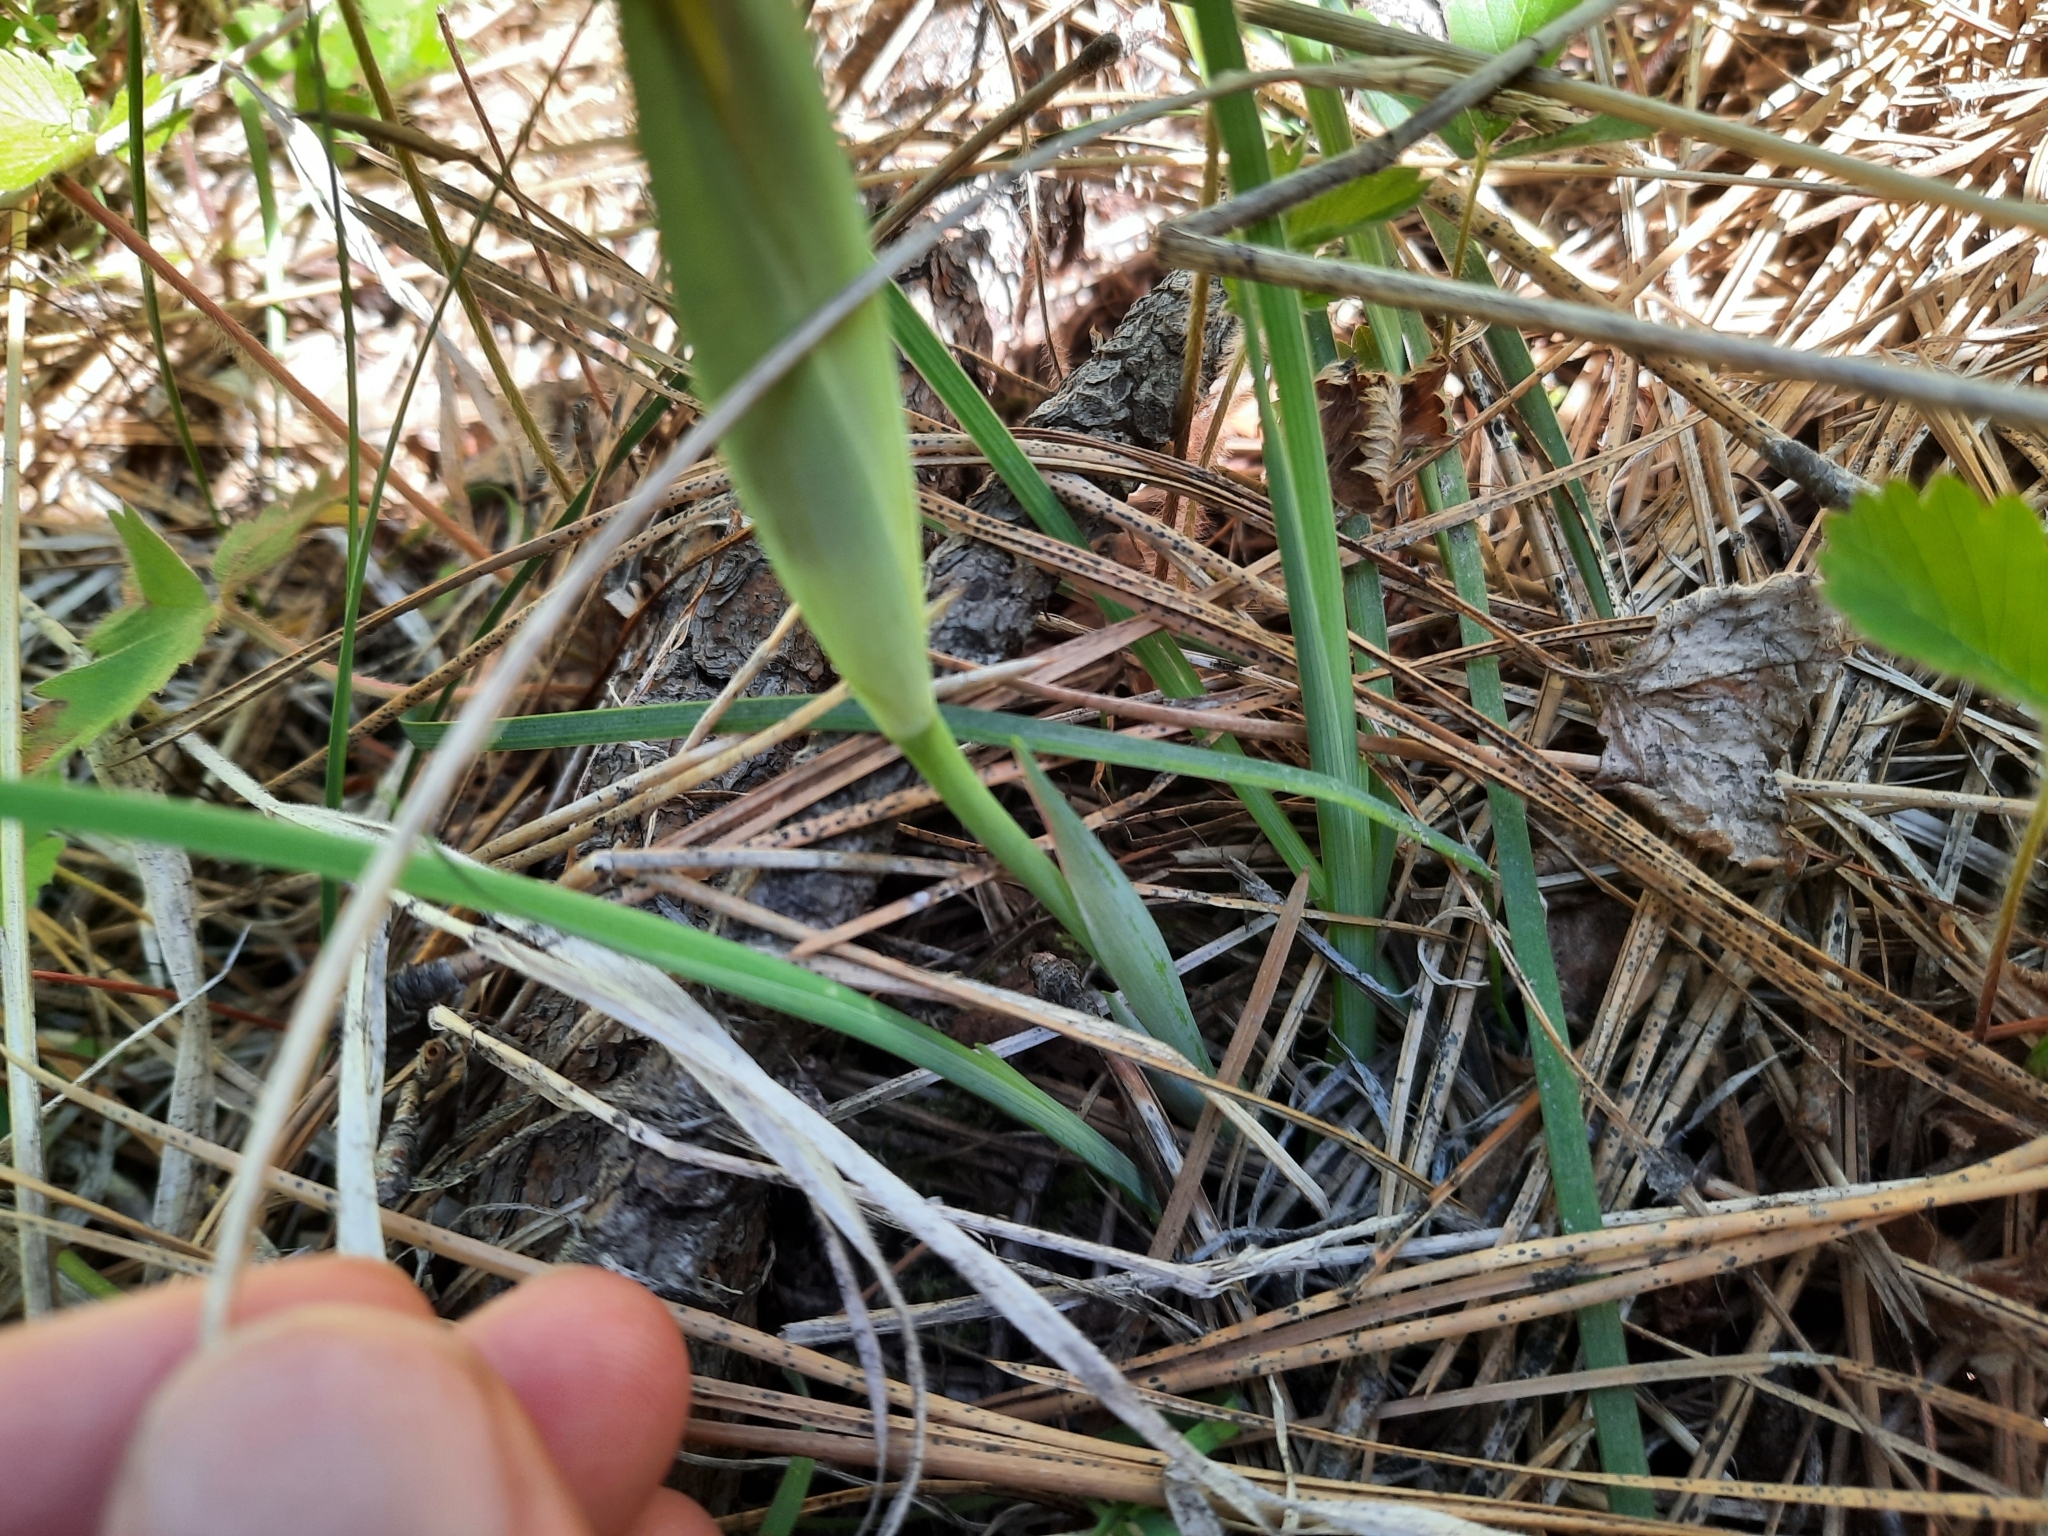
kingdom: Plantae
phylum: Tracheophyta
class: Liliopsida
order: Asparagales
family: Iridaceae
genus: Iris
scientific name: Iris chrysophylla
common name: Yellow-leaf iris
